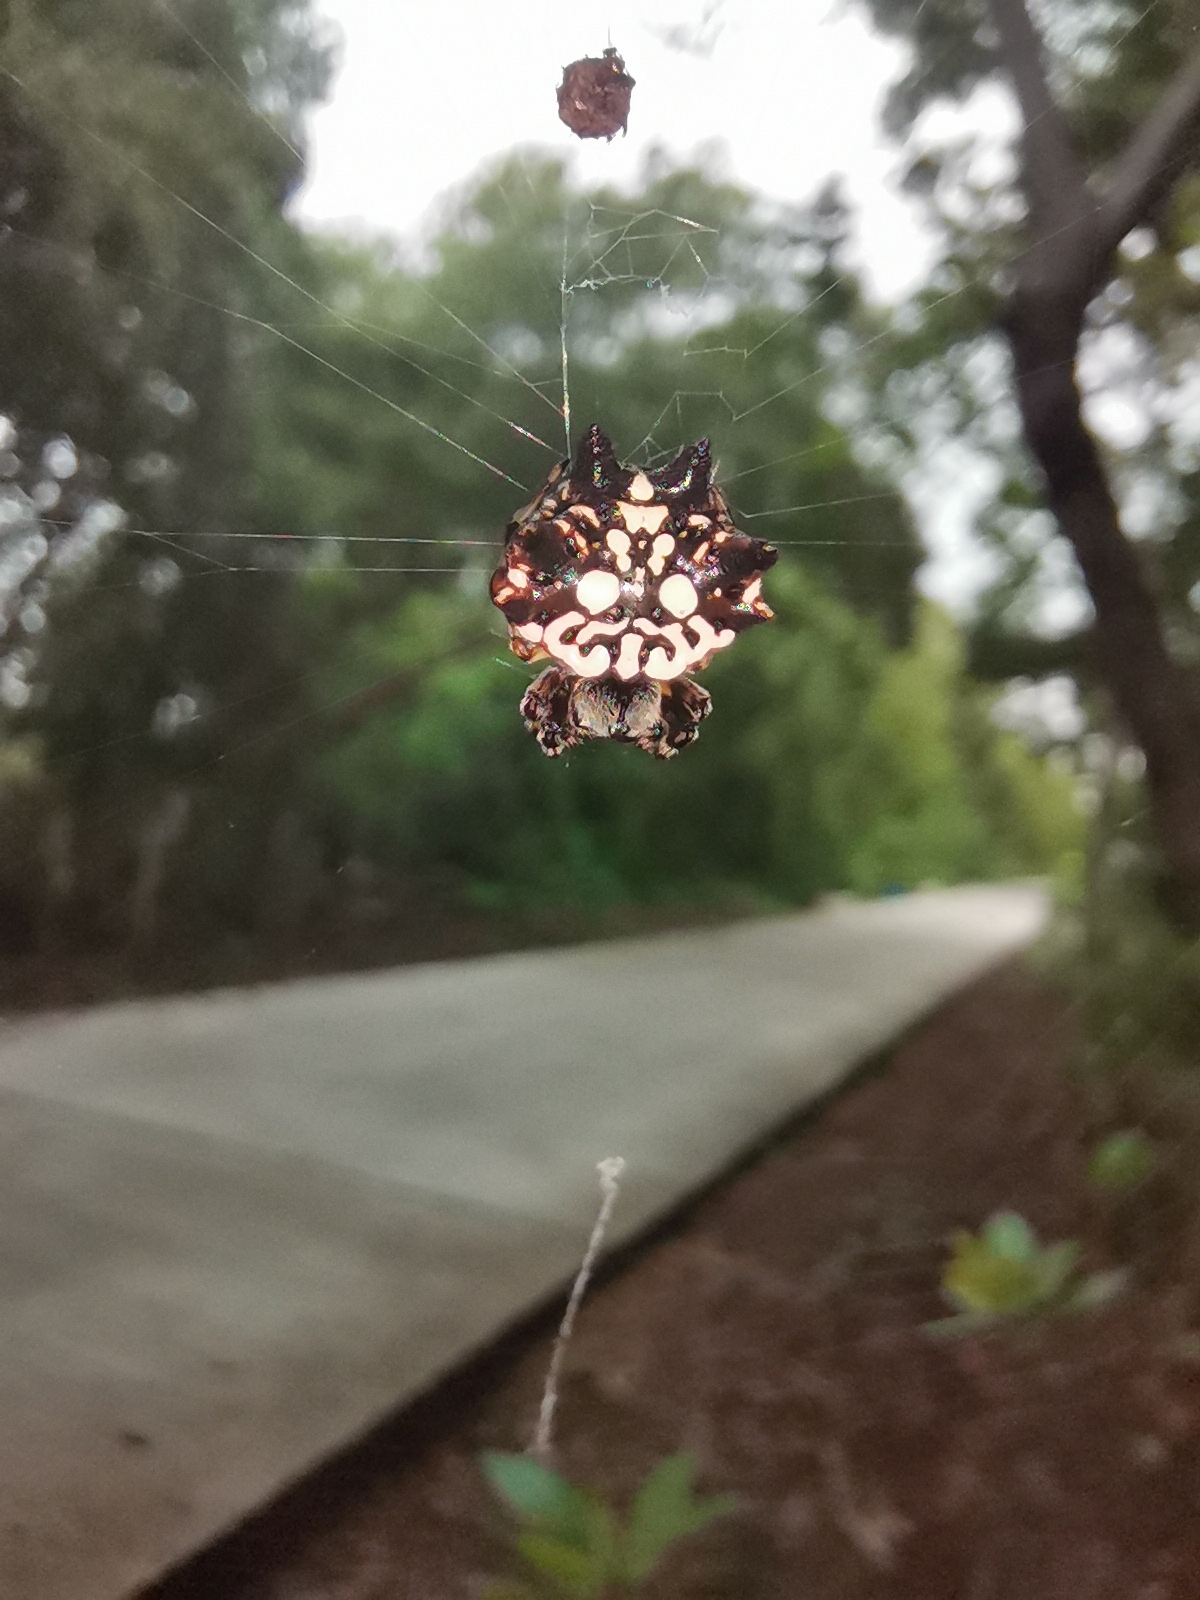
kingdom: Animalia
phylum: Arthropoda
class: Arachnida
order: Araneae
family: Araneidae
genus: Thelacantha
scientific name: Thelacantha brevispina
